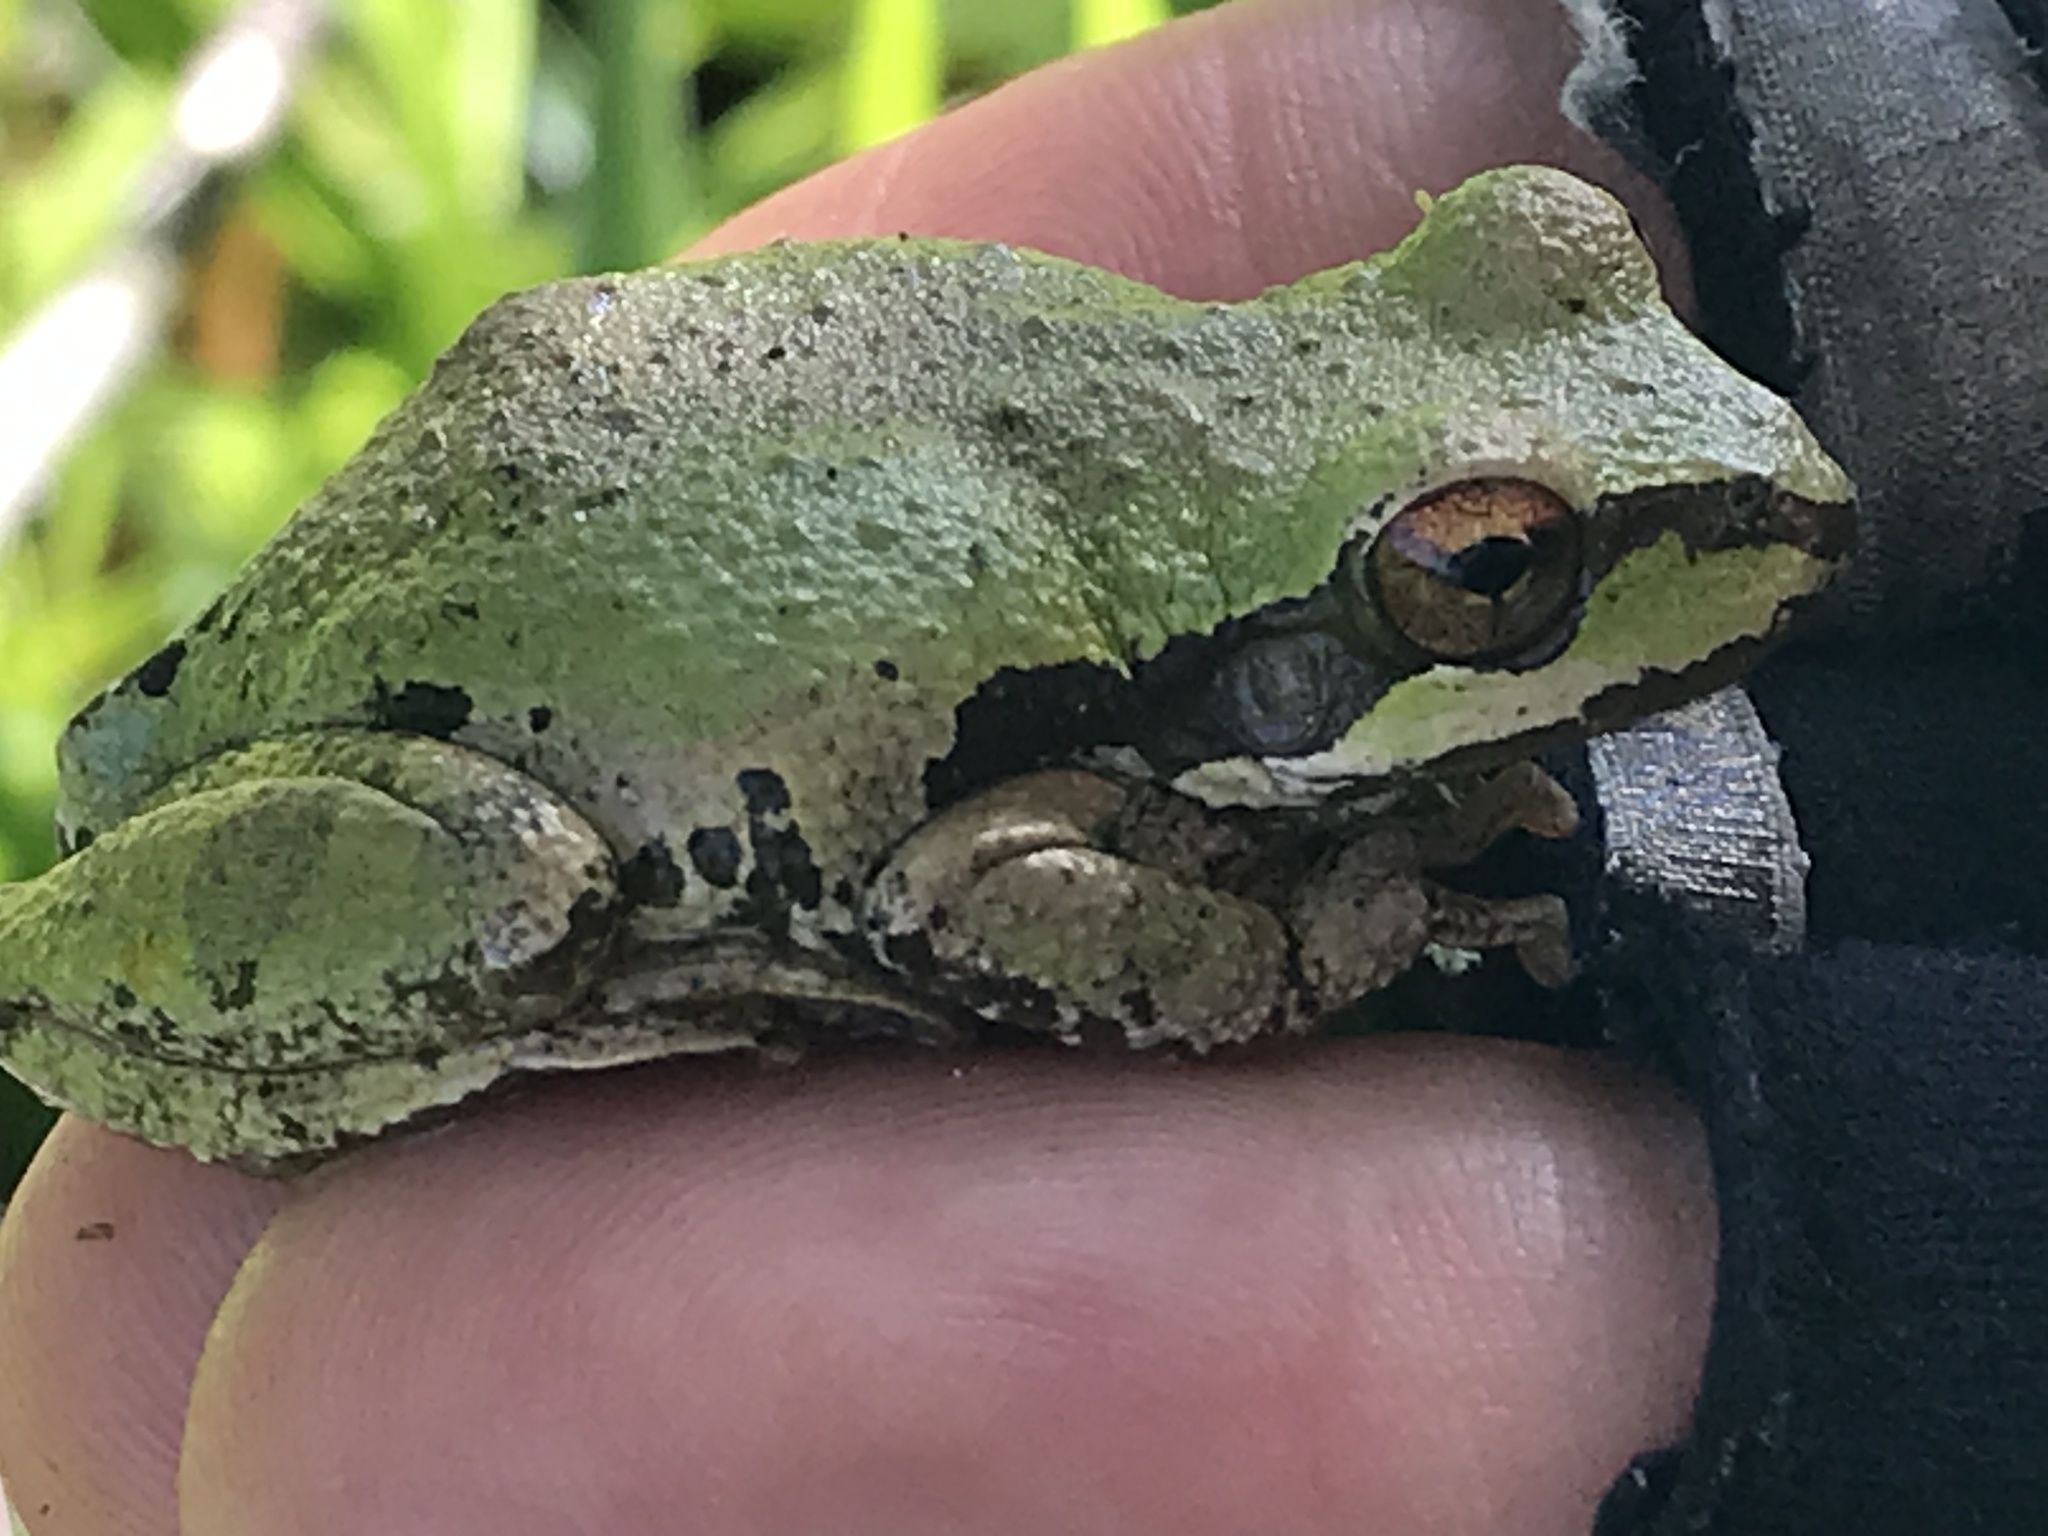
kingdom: Animalia
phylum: Chordata
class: Amphibia
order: Anura
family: Hylidae
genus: Pseudacris
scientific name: Pseudacris regilla
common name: Pacific chorus frog
